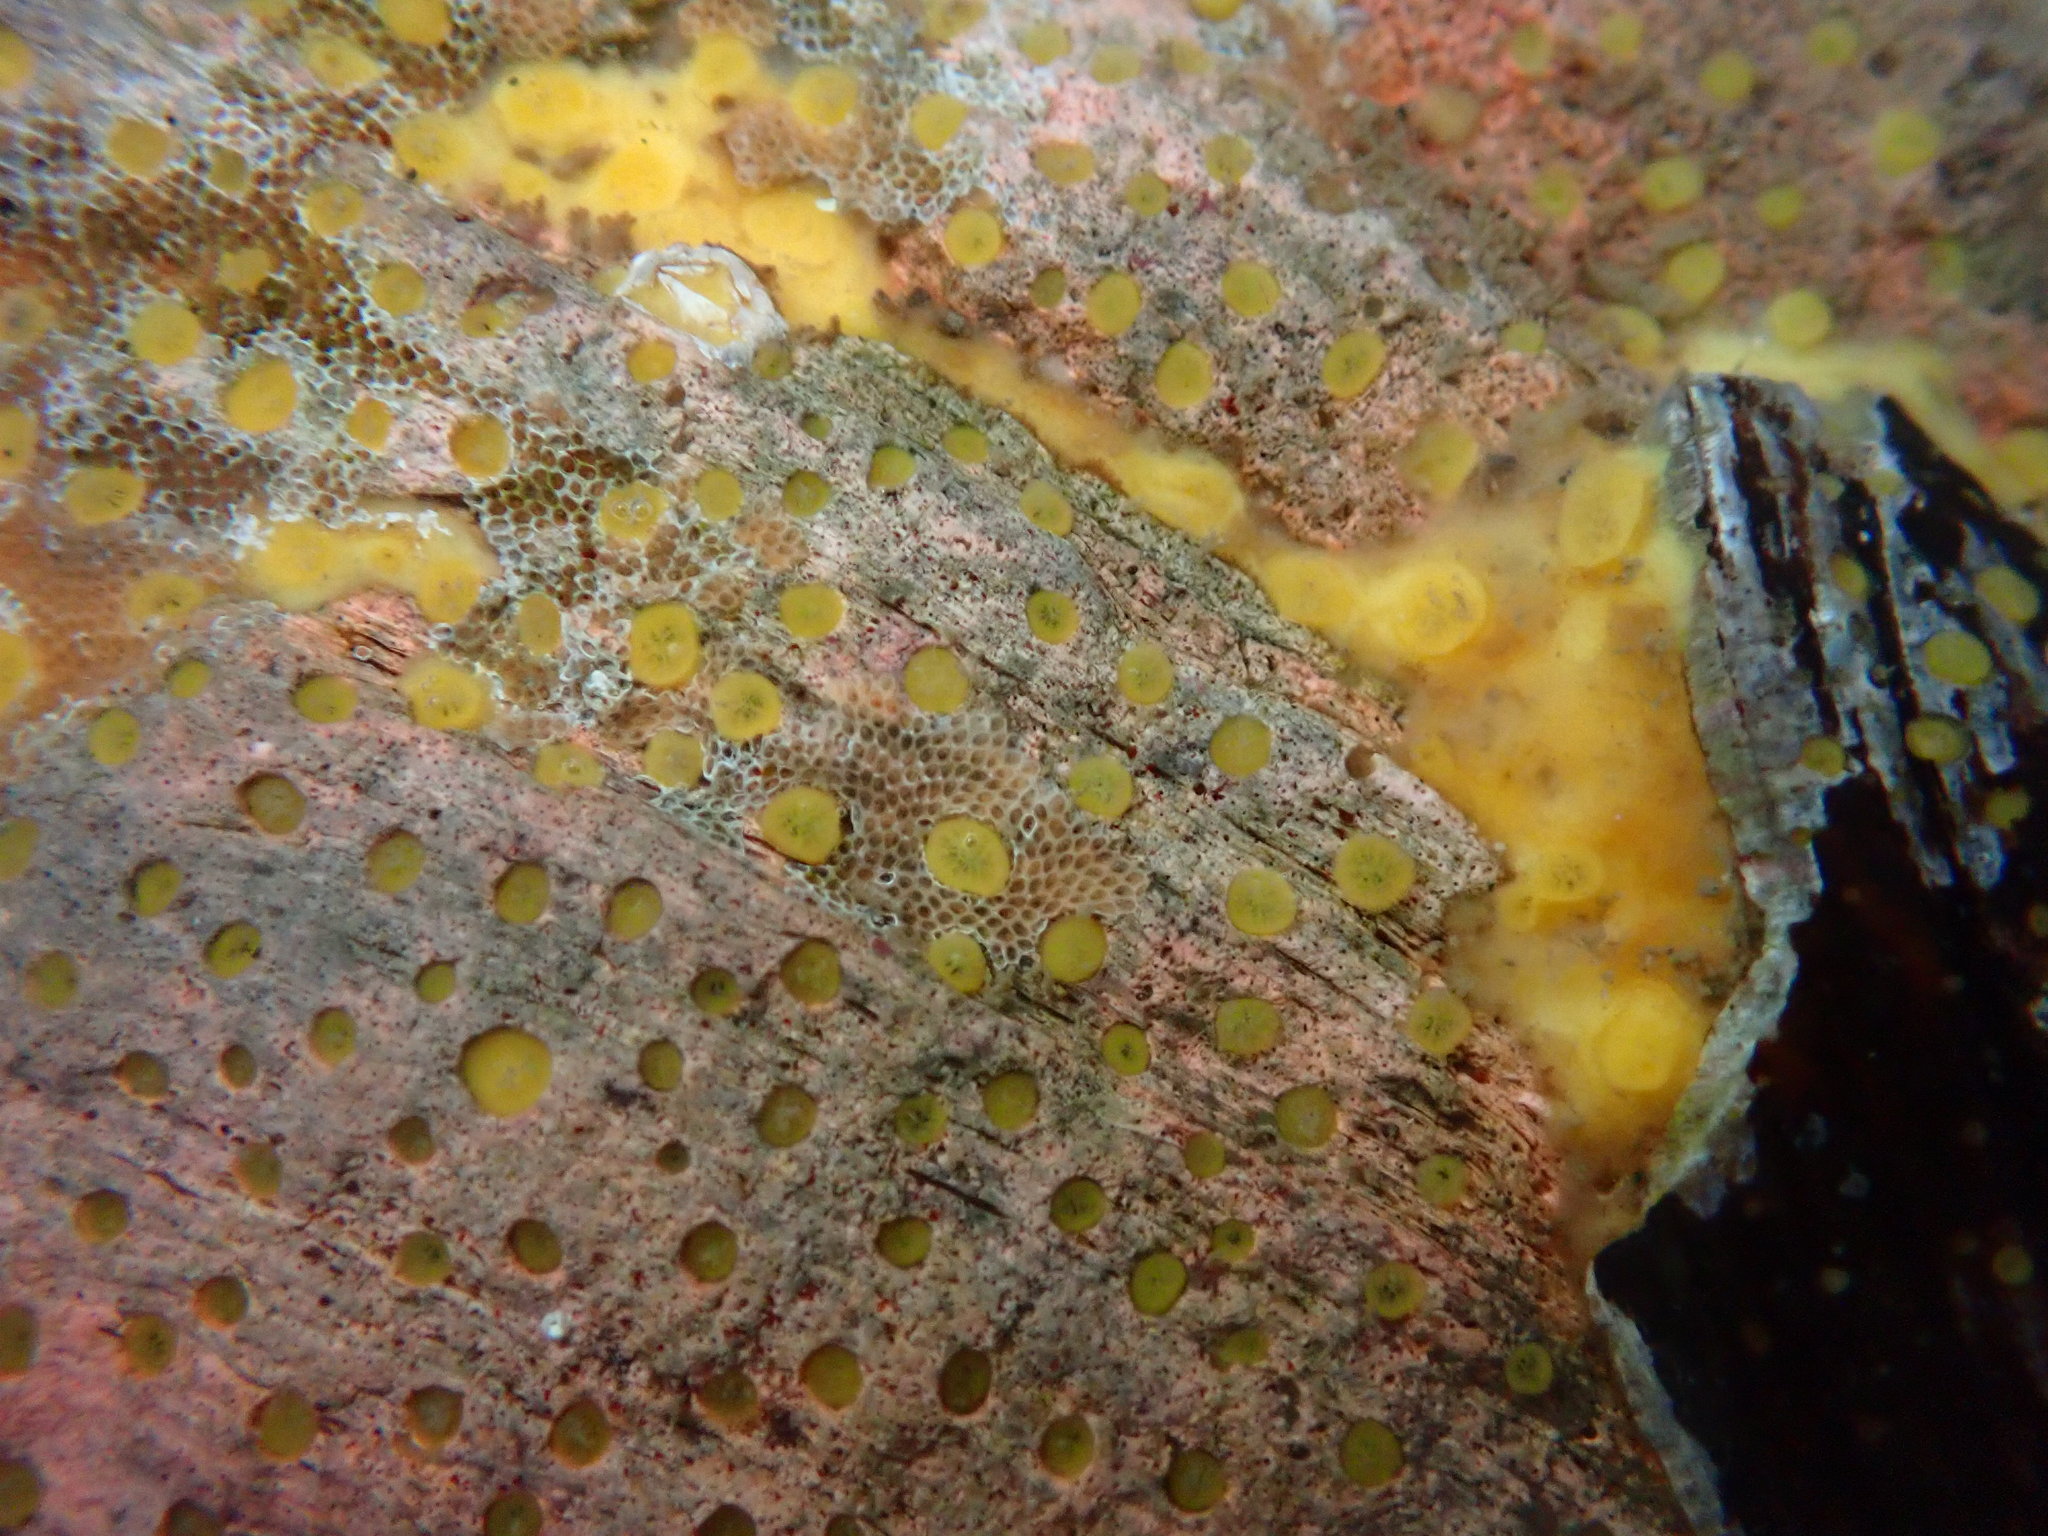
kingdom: Animalia
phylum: Porifera
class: Demospongiae
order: Clionaida
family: Clionaidae
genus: Cliona
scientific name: Cliona californiana
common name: California boring horny sponge
